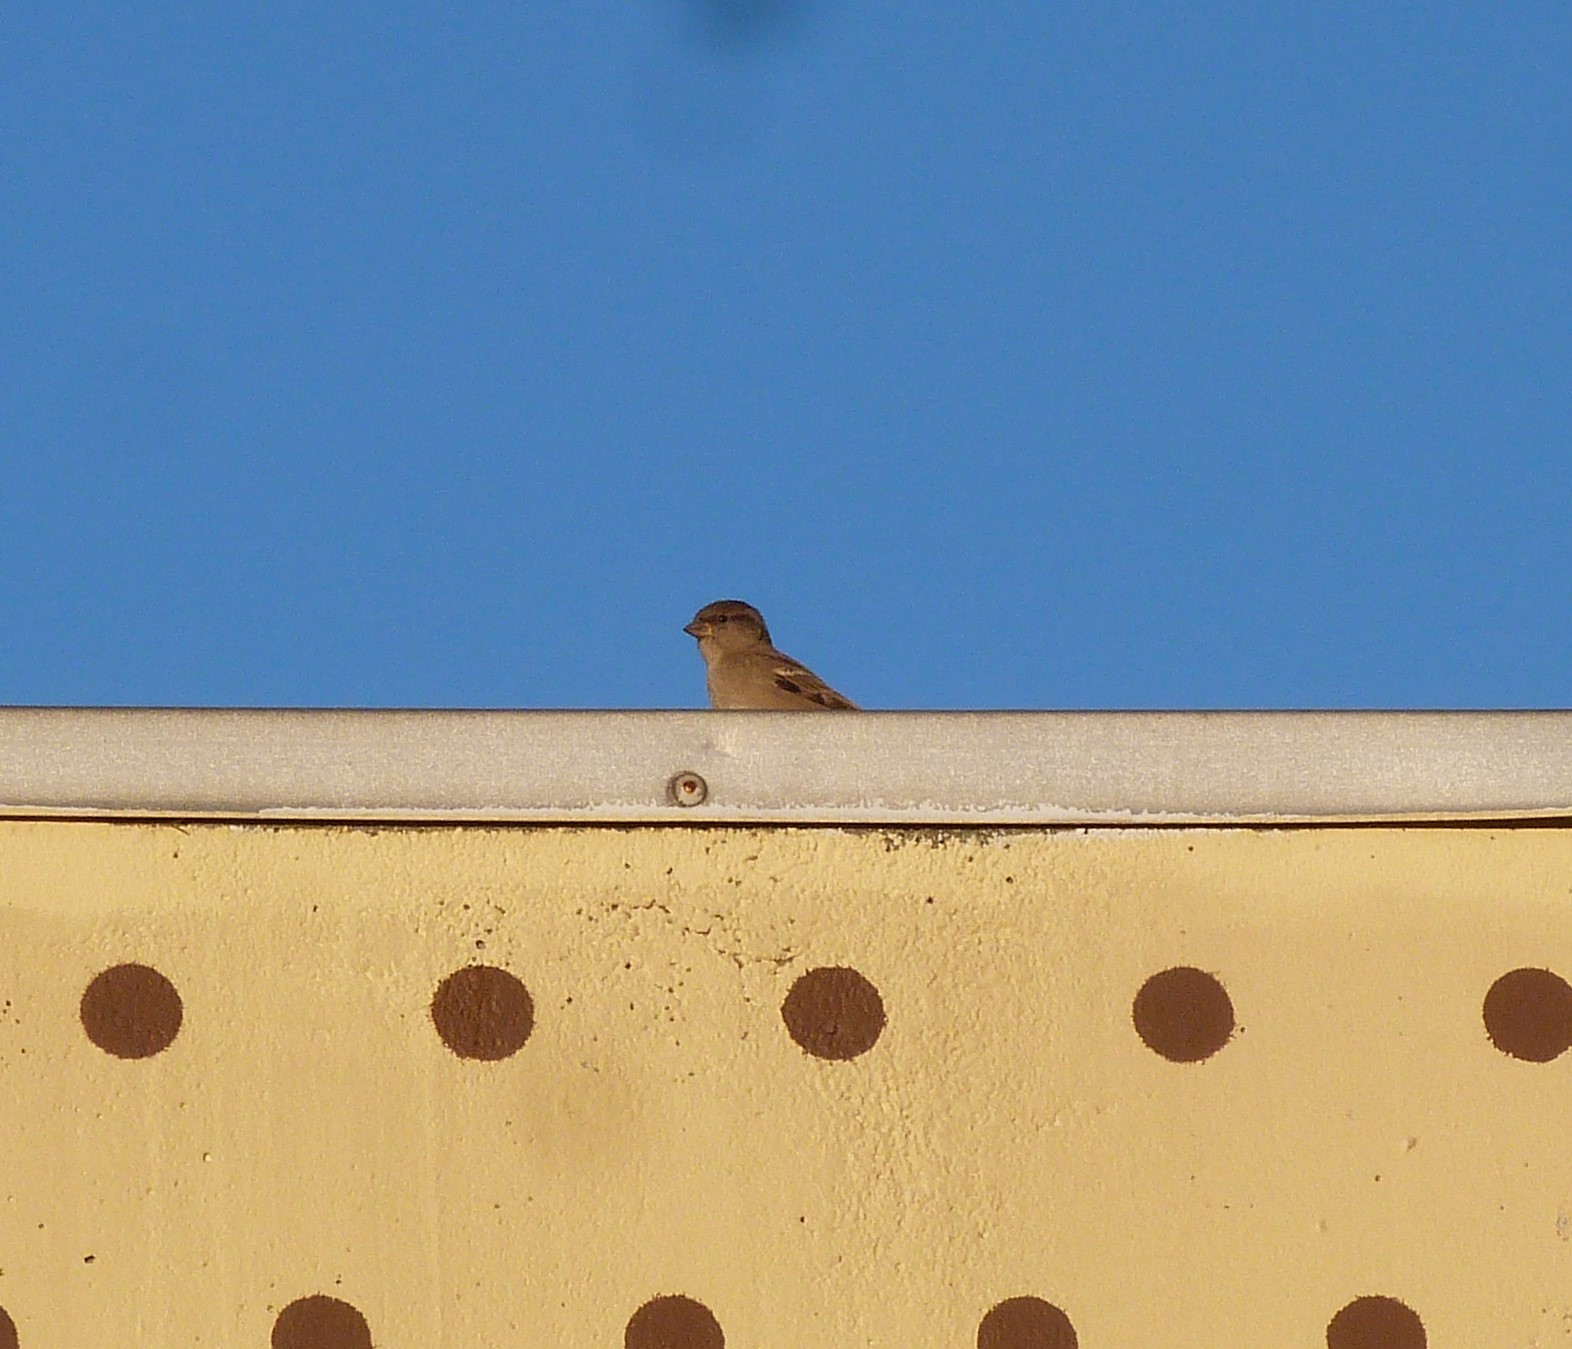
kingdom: Animalia
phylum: Chordata
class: Aves
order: Passeriformes
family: Passeridae
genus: Passer
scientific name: Passer domesticus
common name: House sparrow
